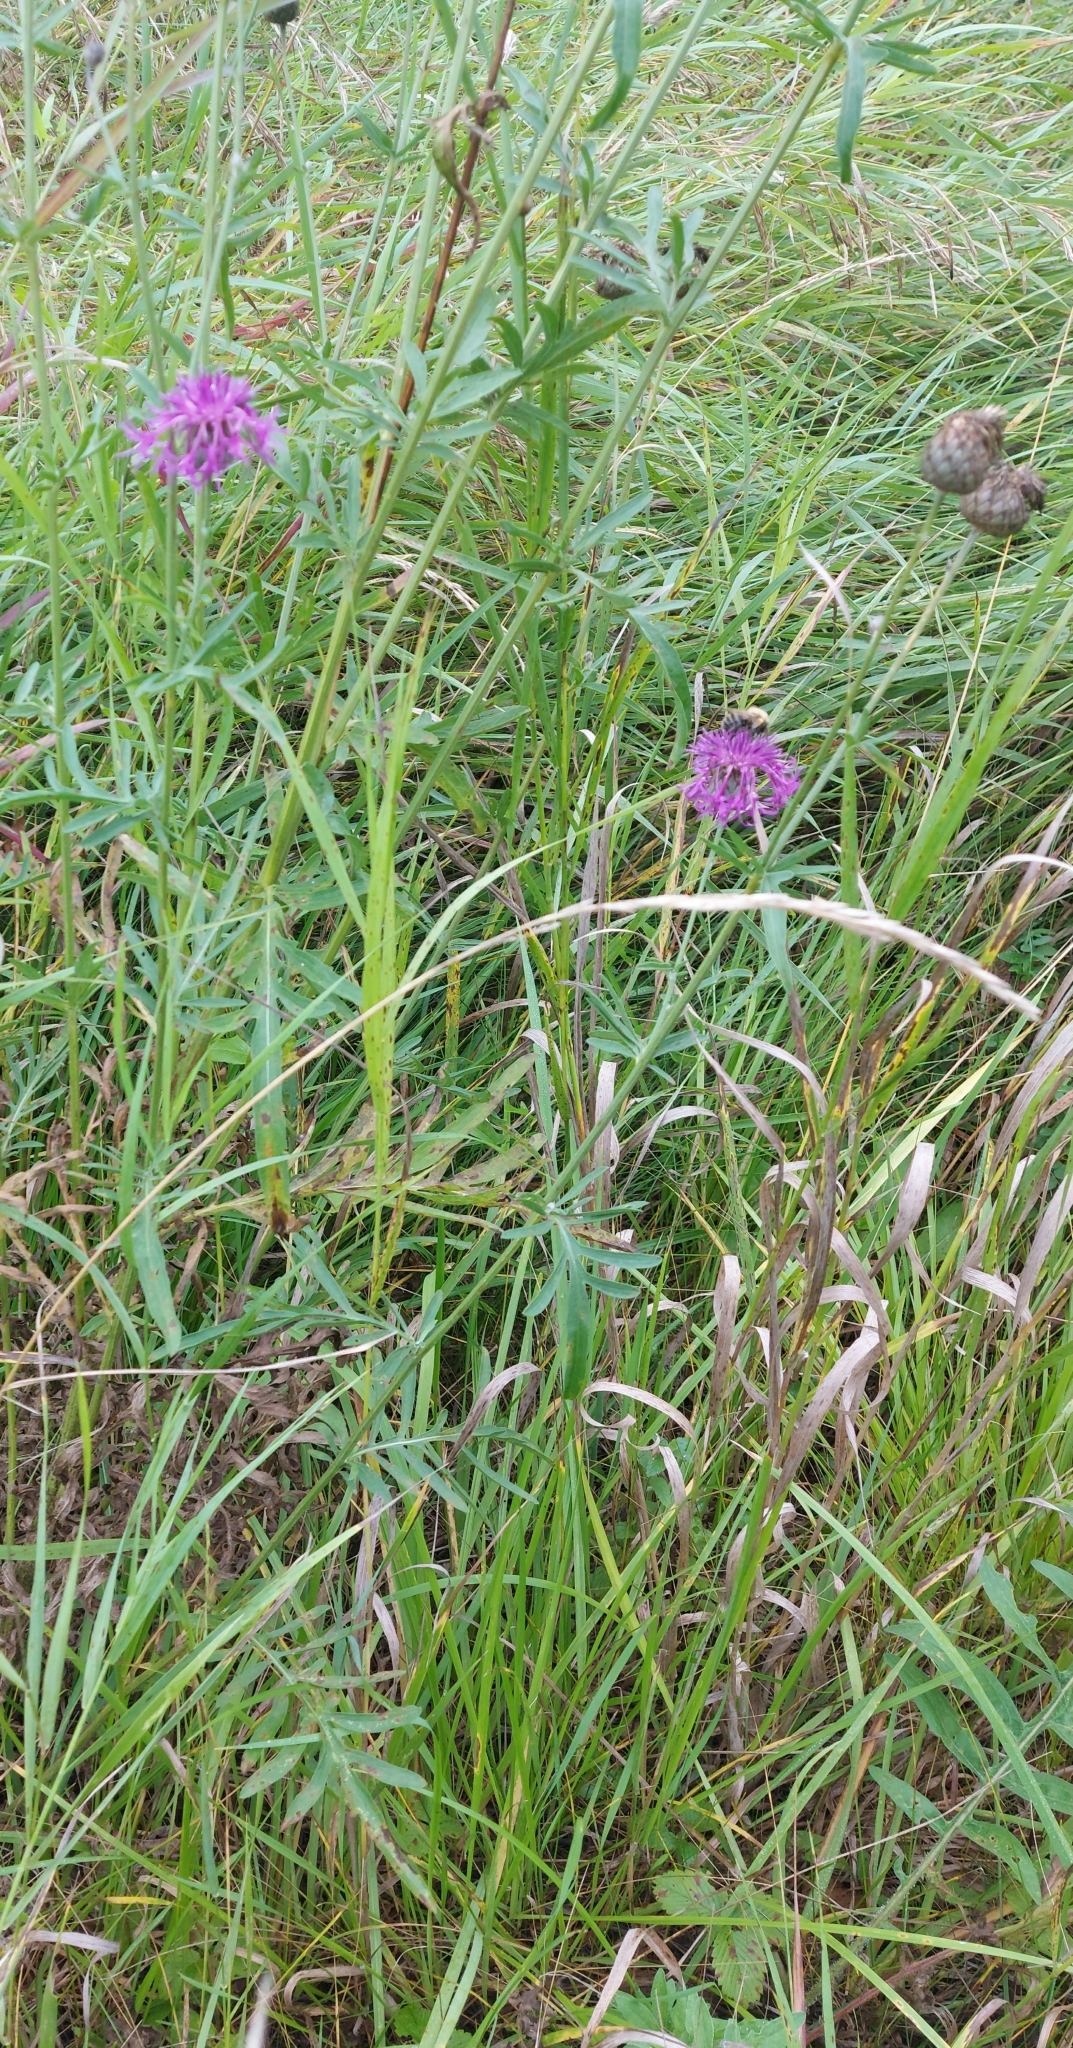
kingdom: Plantae
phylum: Tracheophyta
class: Magnoliopsida
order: Asterales
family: Asteraceae
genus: Centaurea
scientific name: Centaurea scabiosa
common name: Greater knapweed
